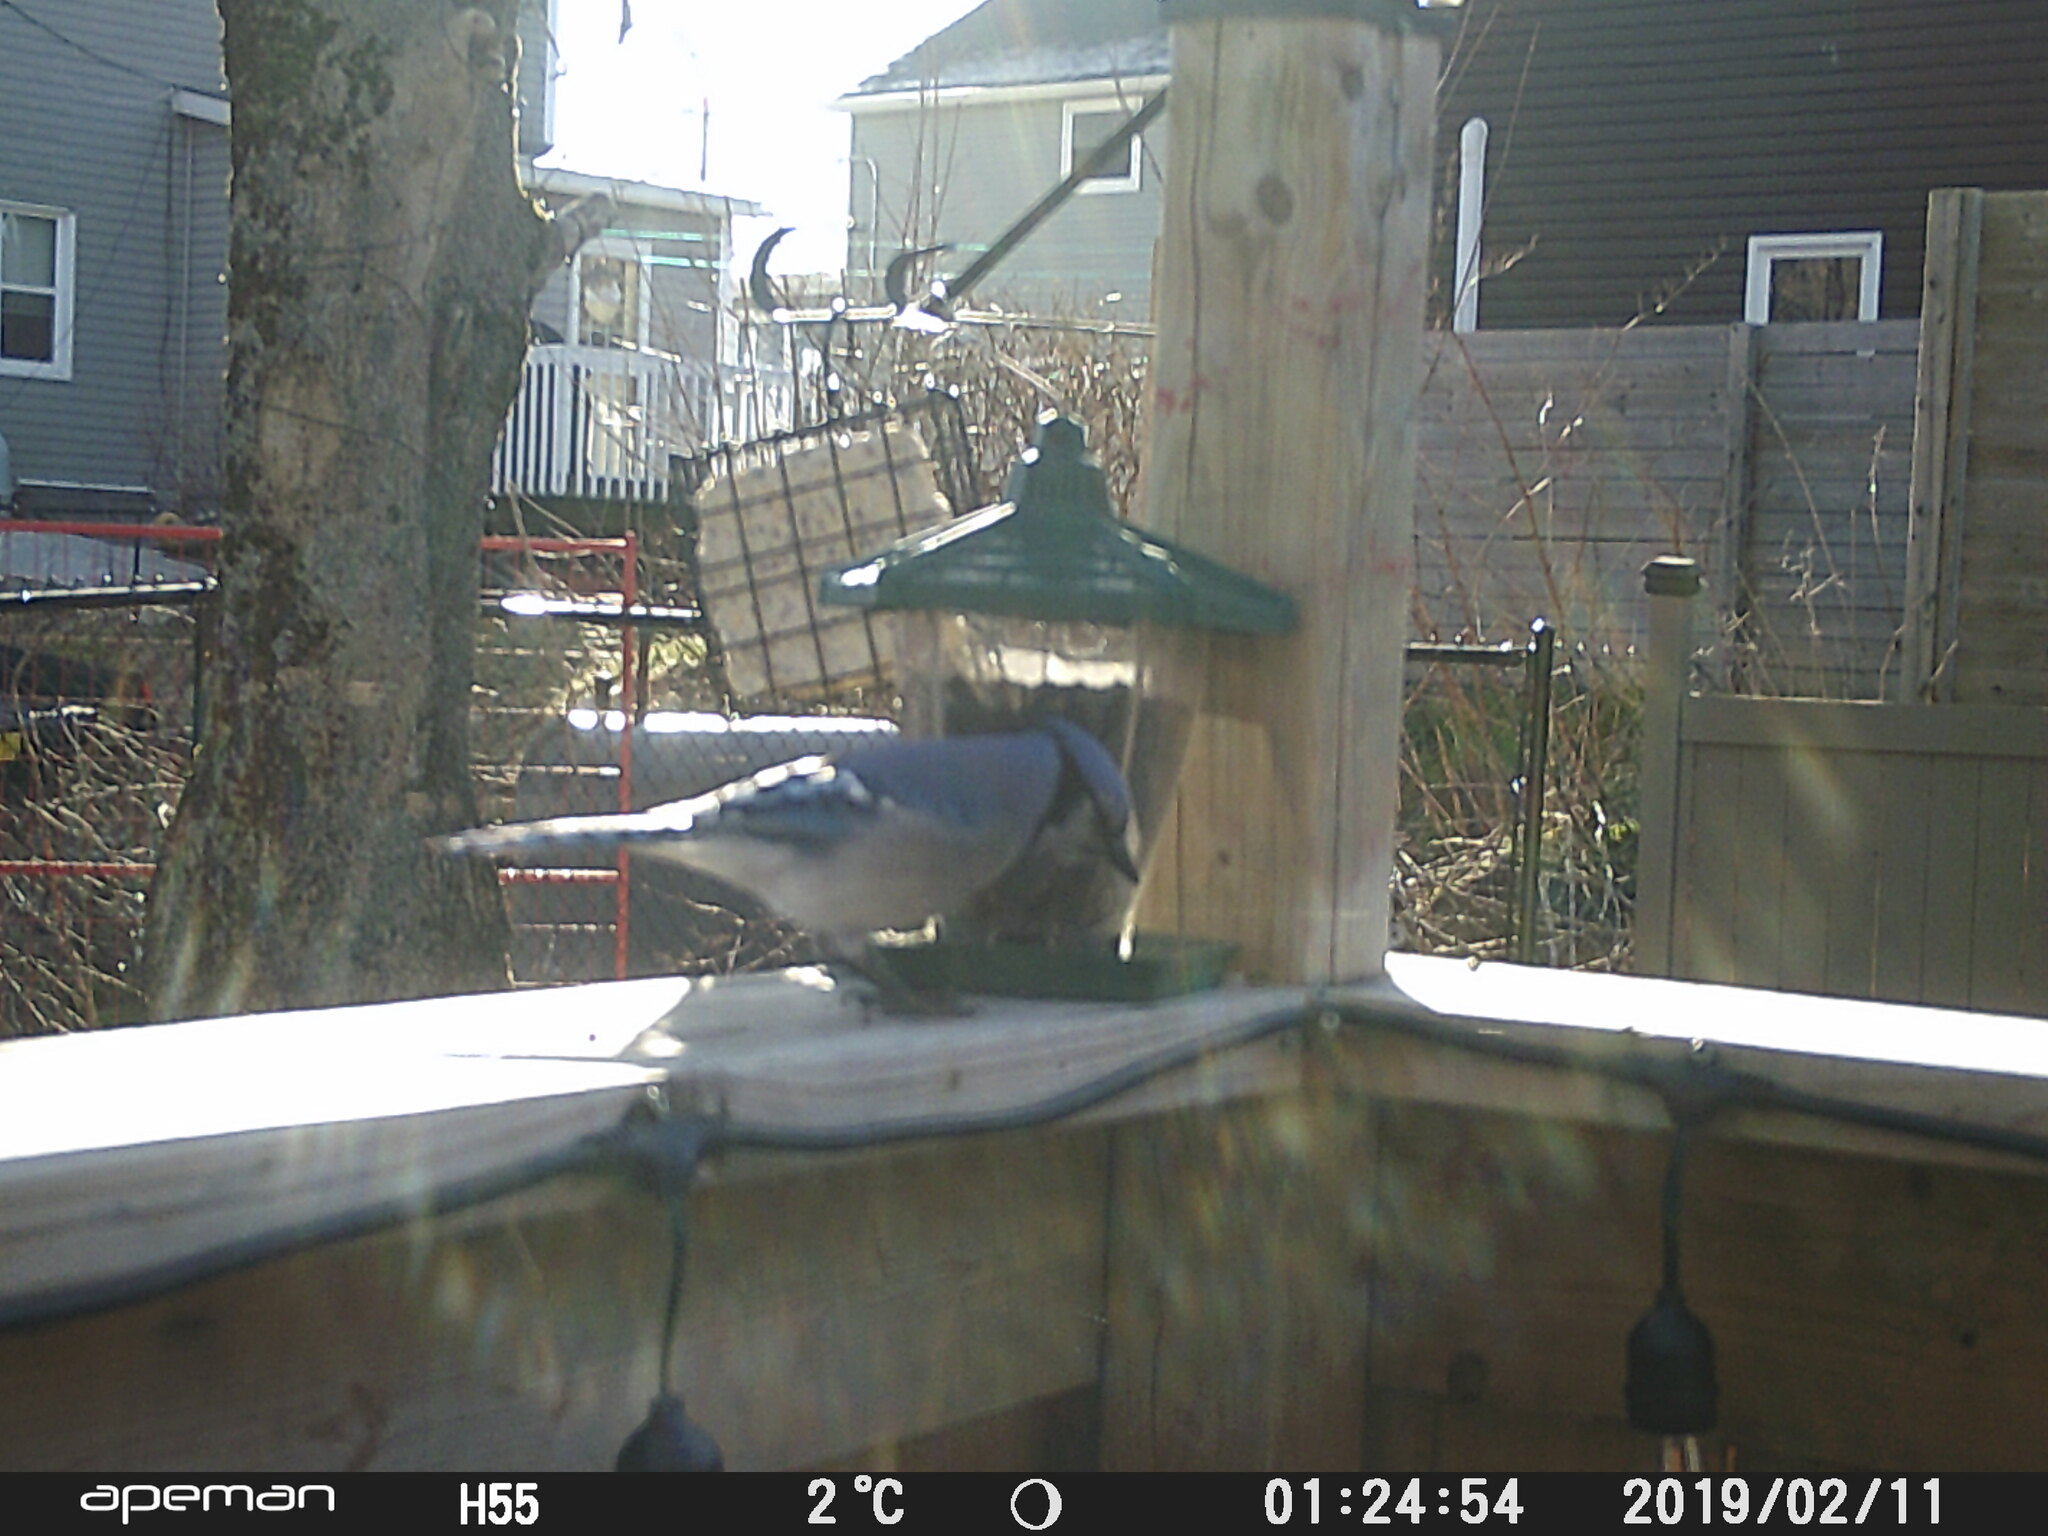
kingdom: Animalia
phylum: Chordata
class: Aves
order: Passeriformes
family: Corvidae
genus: Cyanocitta
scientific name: Cyanocitta cristata
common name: Blue jay
